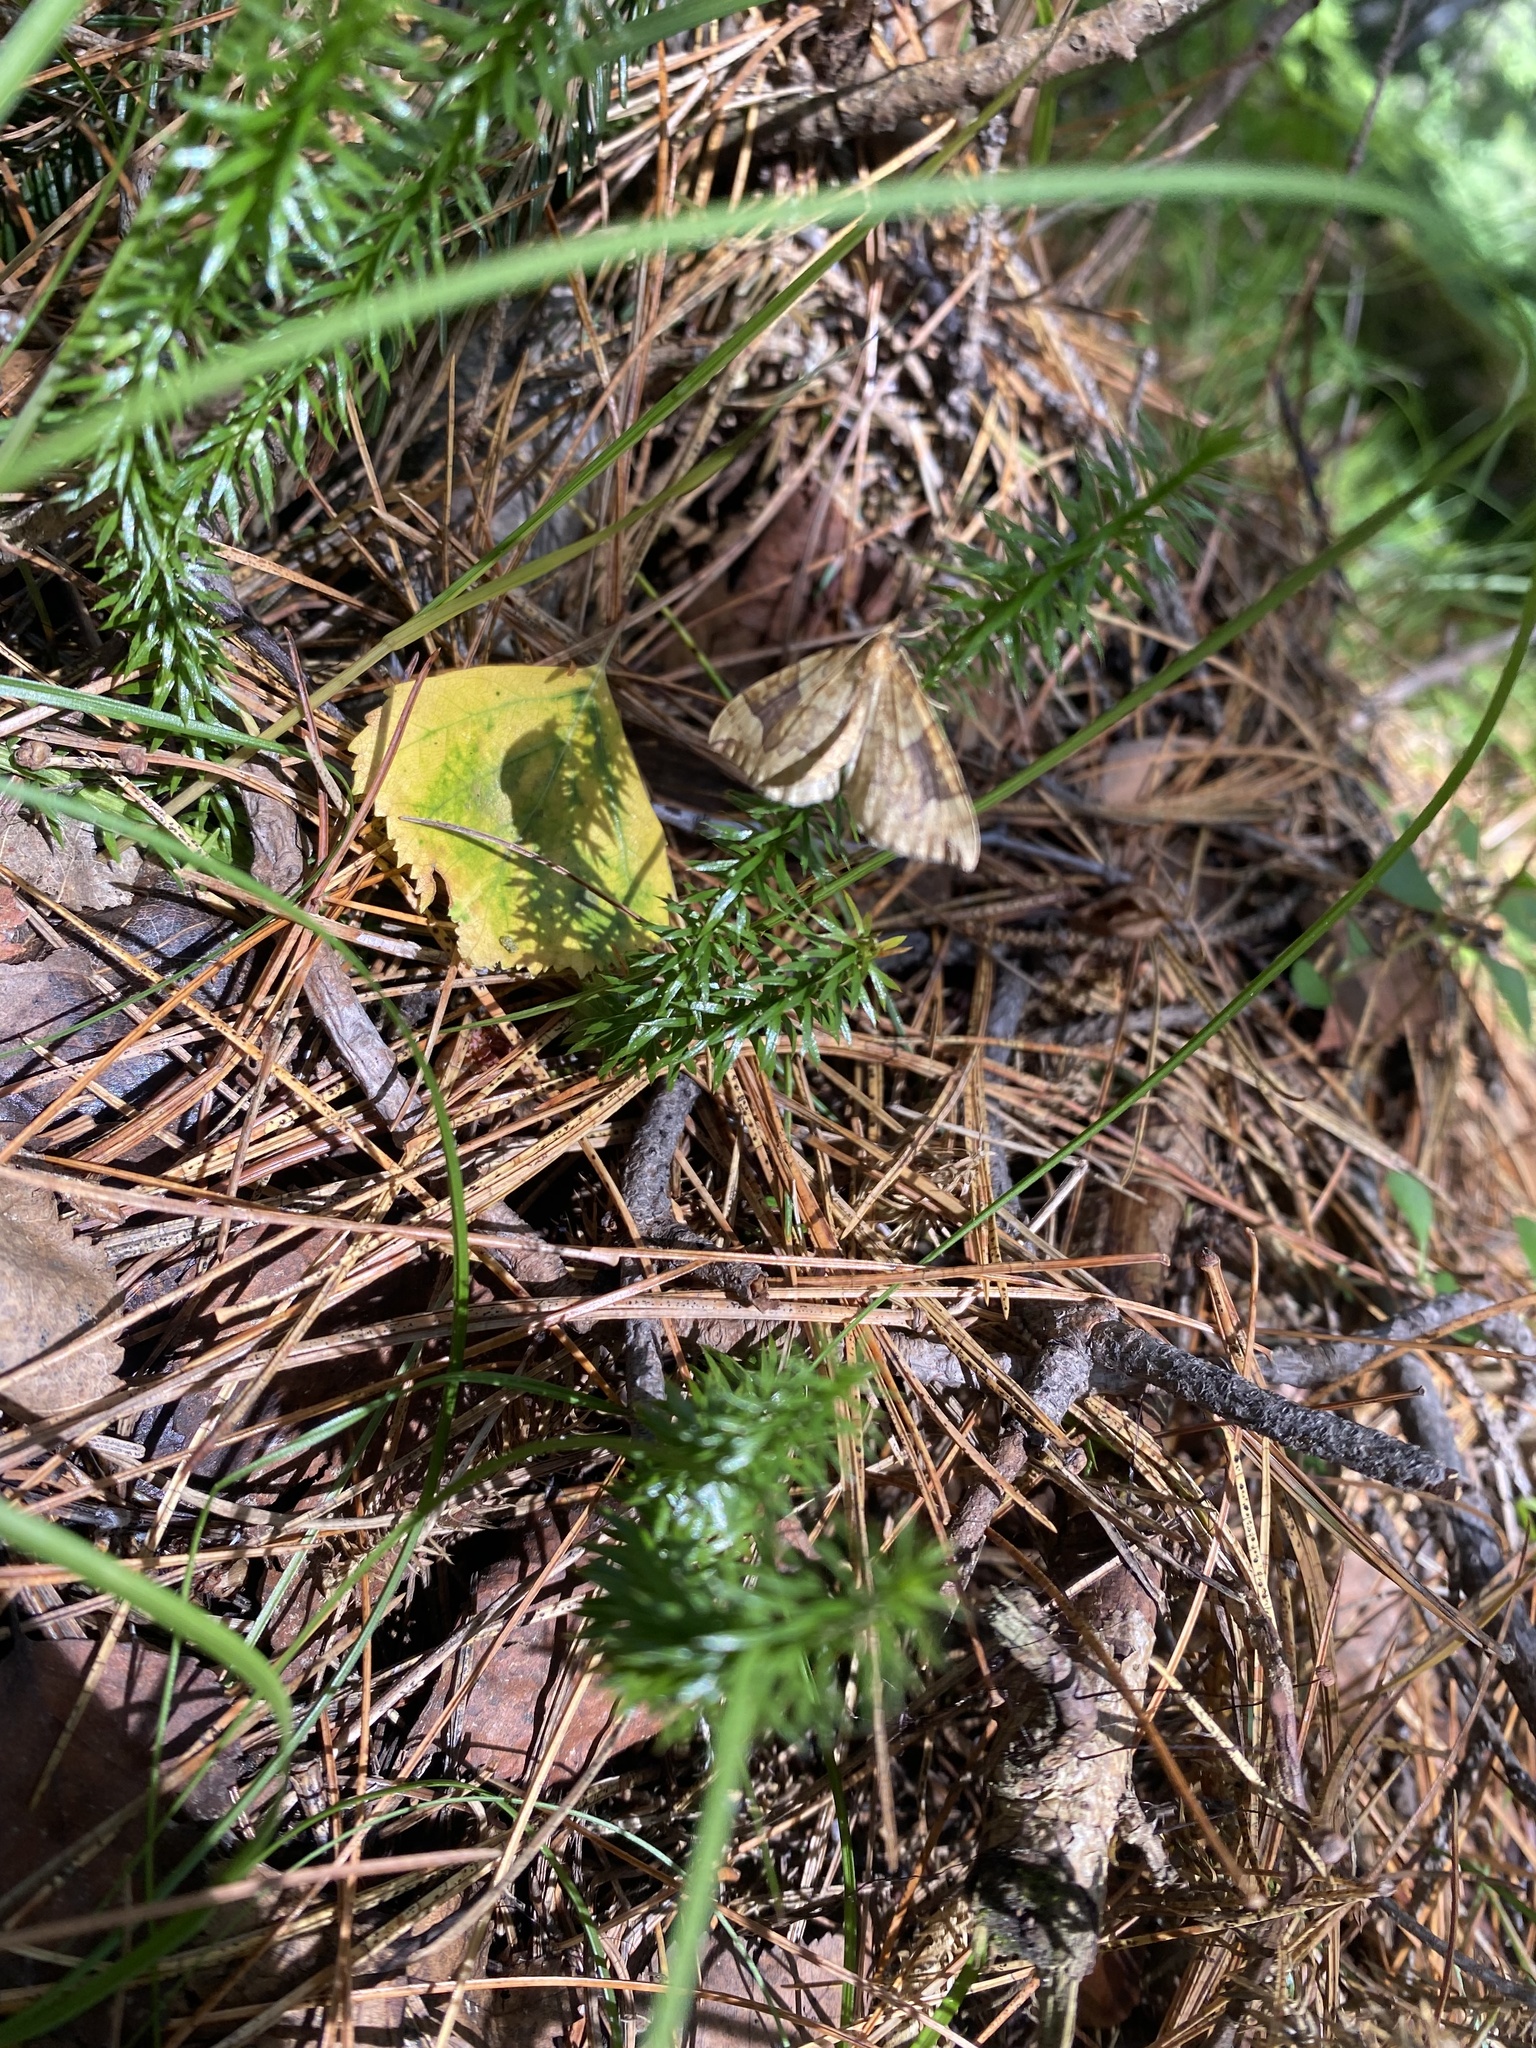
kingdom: Plantae
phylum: Tracheophyta
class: Lycopodiopsida
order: Lycopodiales
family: Lycopodiaceae
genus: Spinulum
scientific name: Spinulum annotinum
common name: Interrupted club-moss
